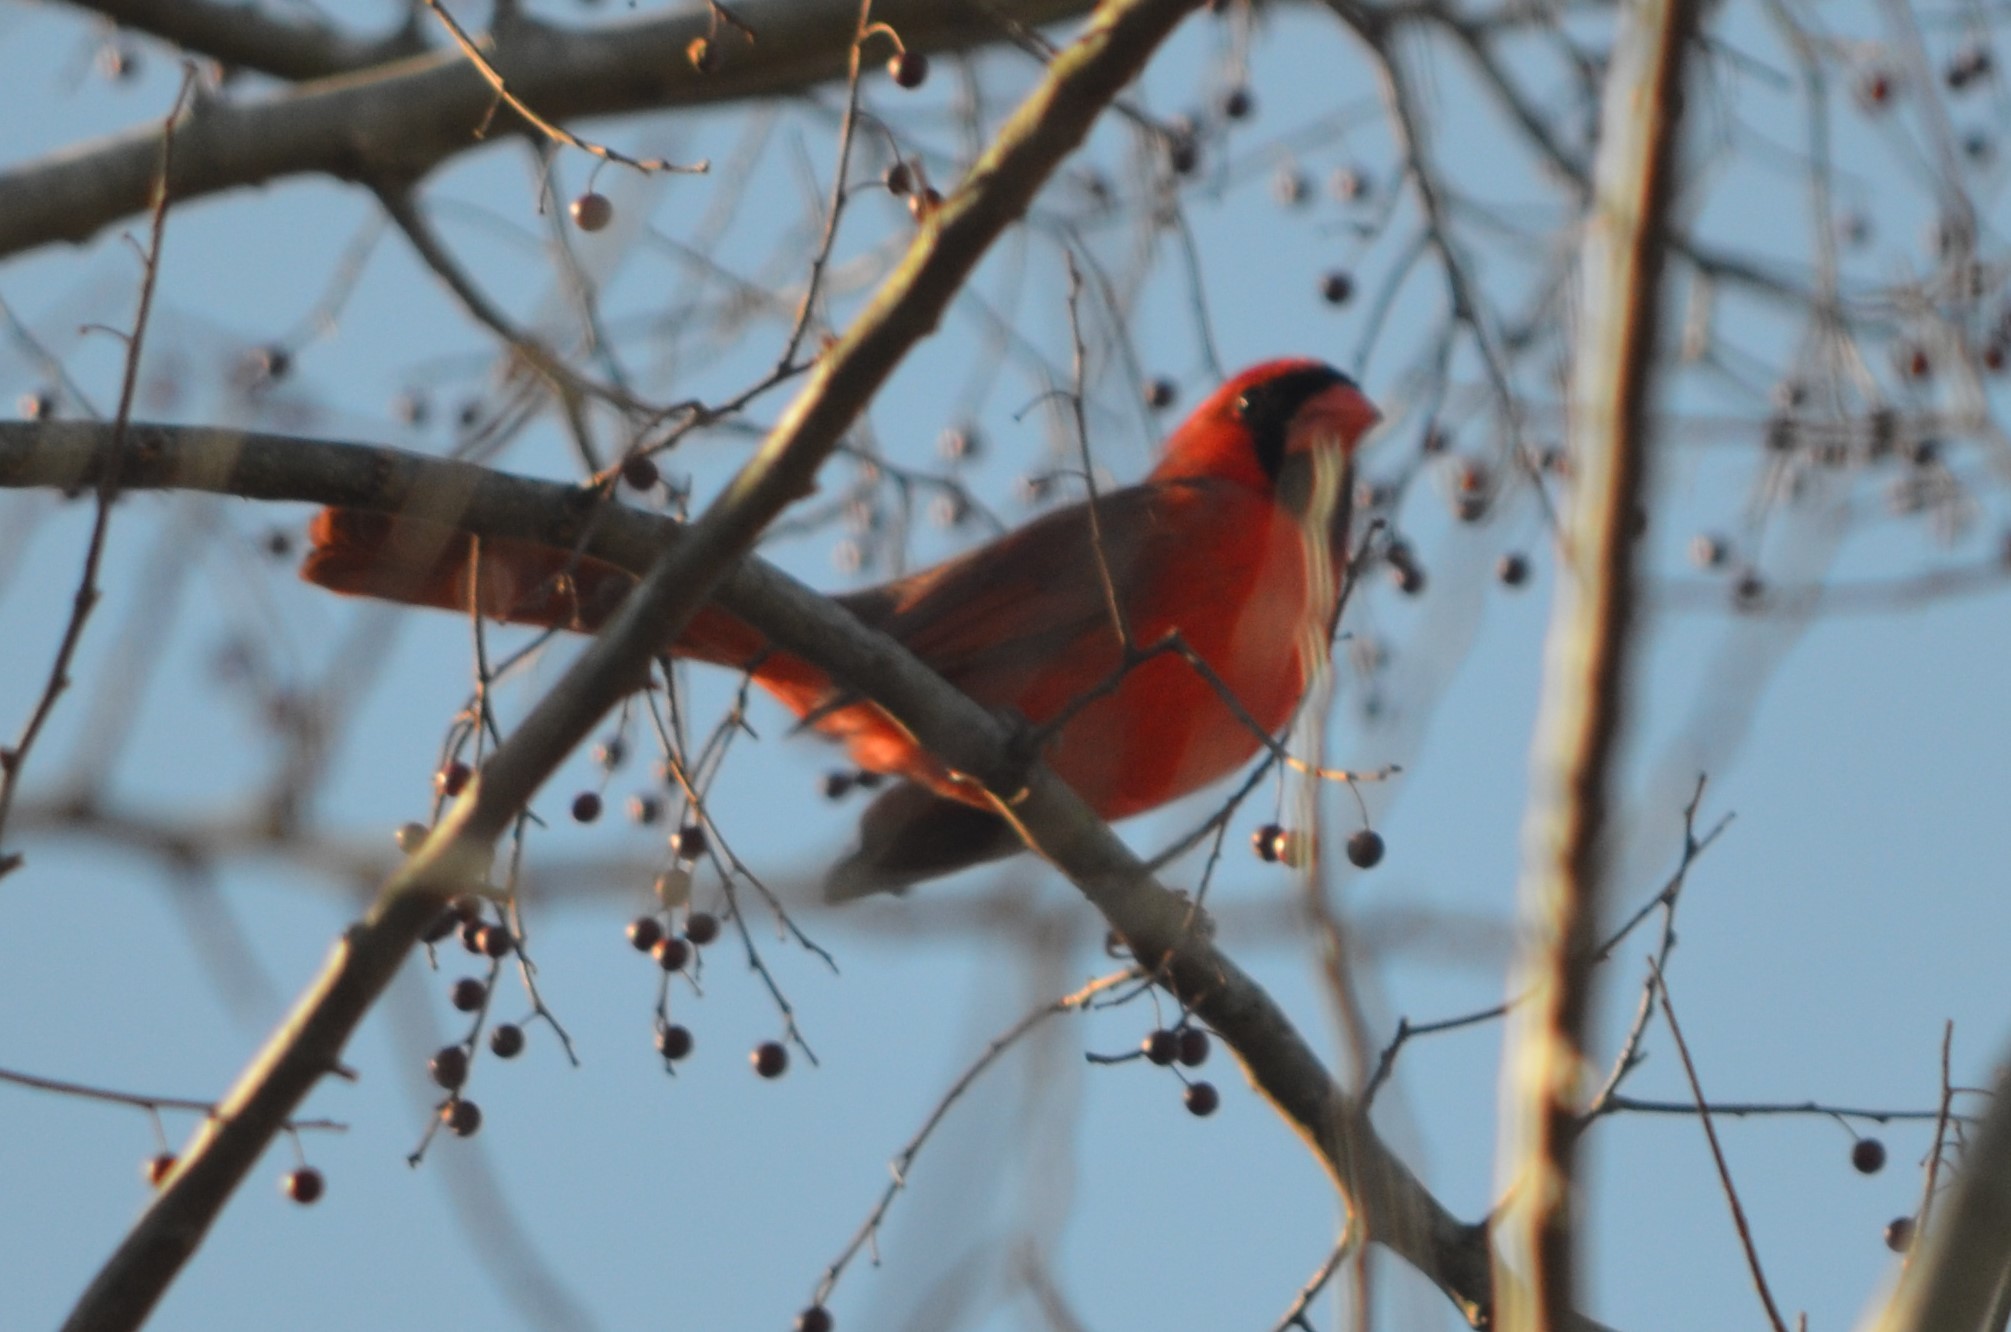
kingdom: Animalia
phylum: Chordata
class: Aves
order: Passeriformes
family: Cardinalidae
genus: Cardinalis
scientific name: Cardinalis cardinalis
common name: Northern cardinal
